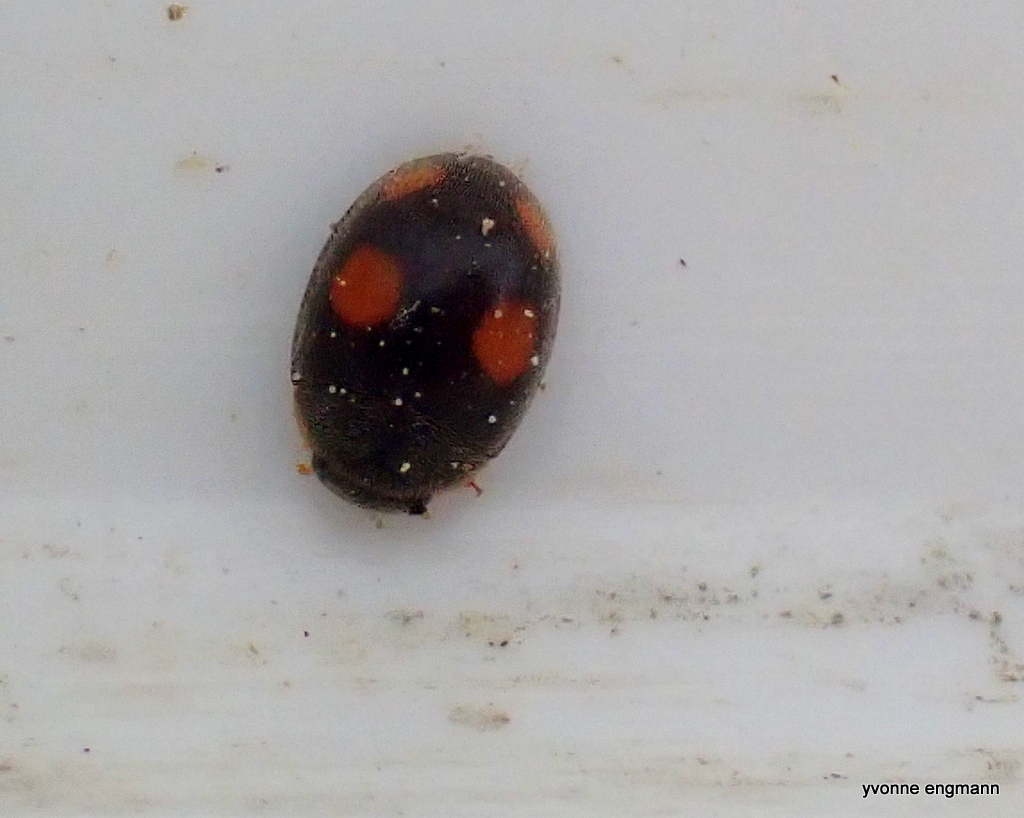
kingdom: Animalia
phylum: Arthropoda
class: Insecta
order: Coleoptera
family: Coccinellidae
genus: Platynaspis
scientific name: Platynaspis luteorubra
